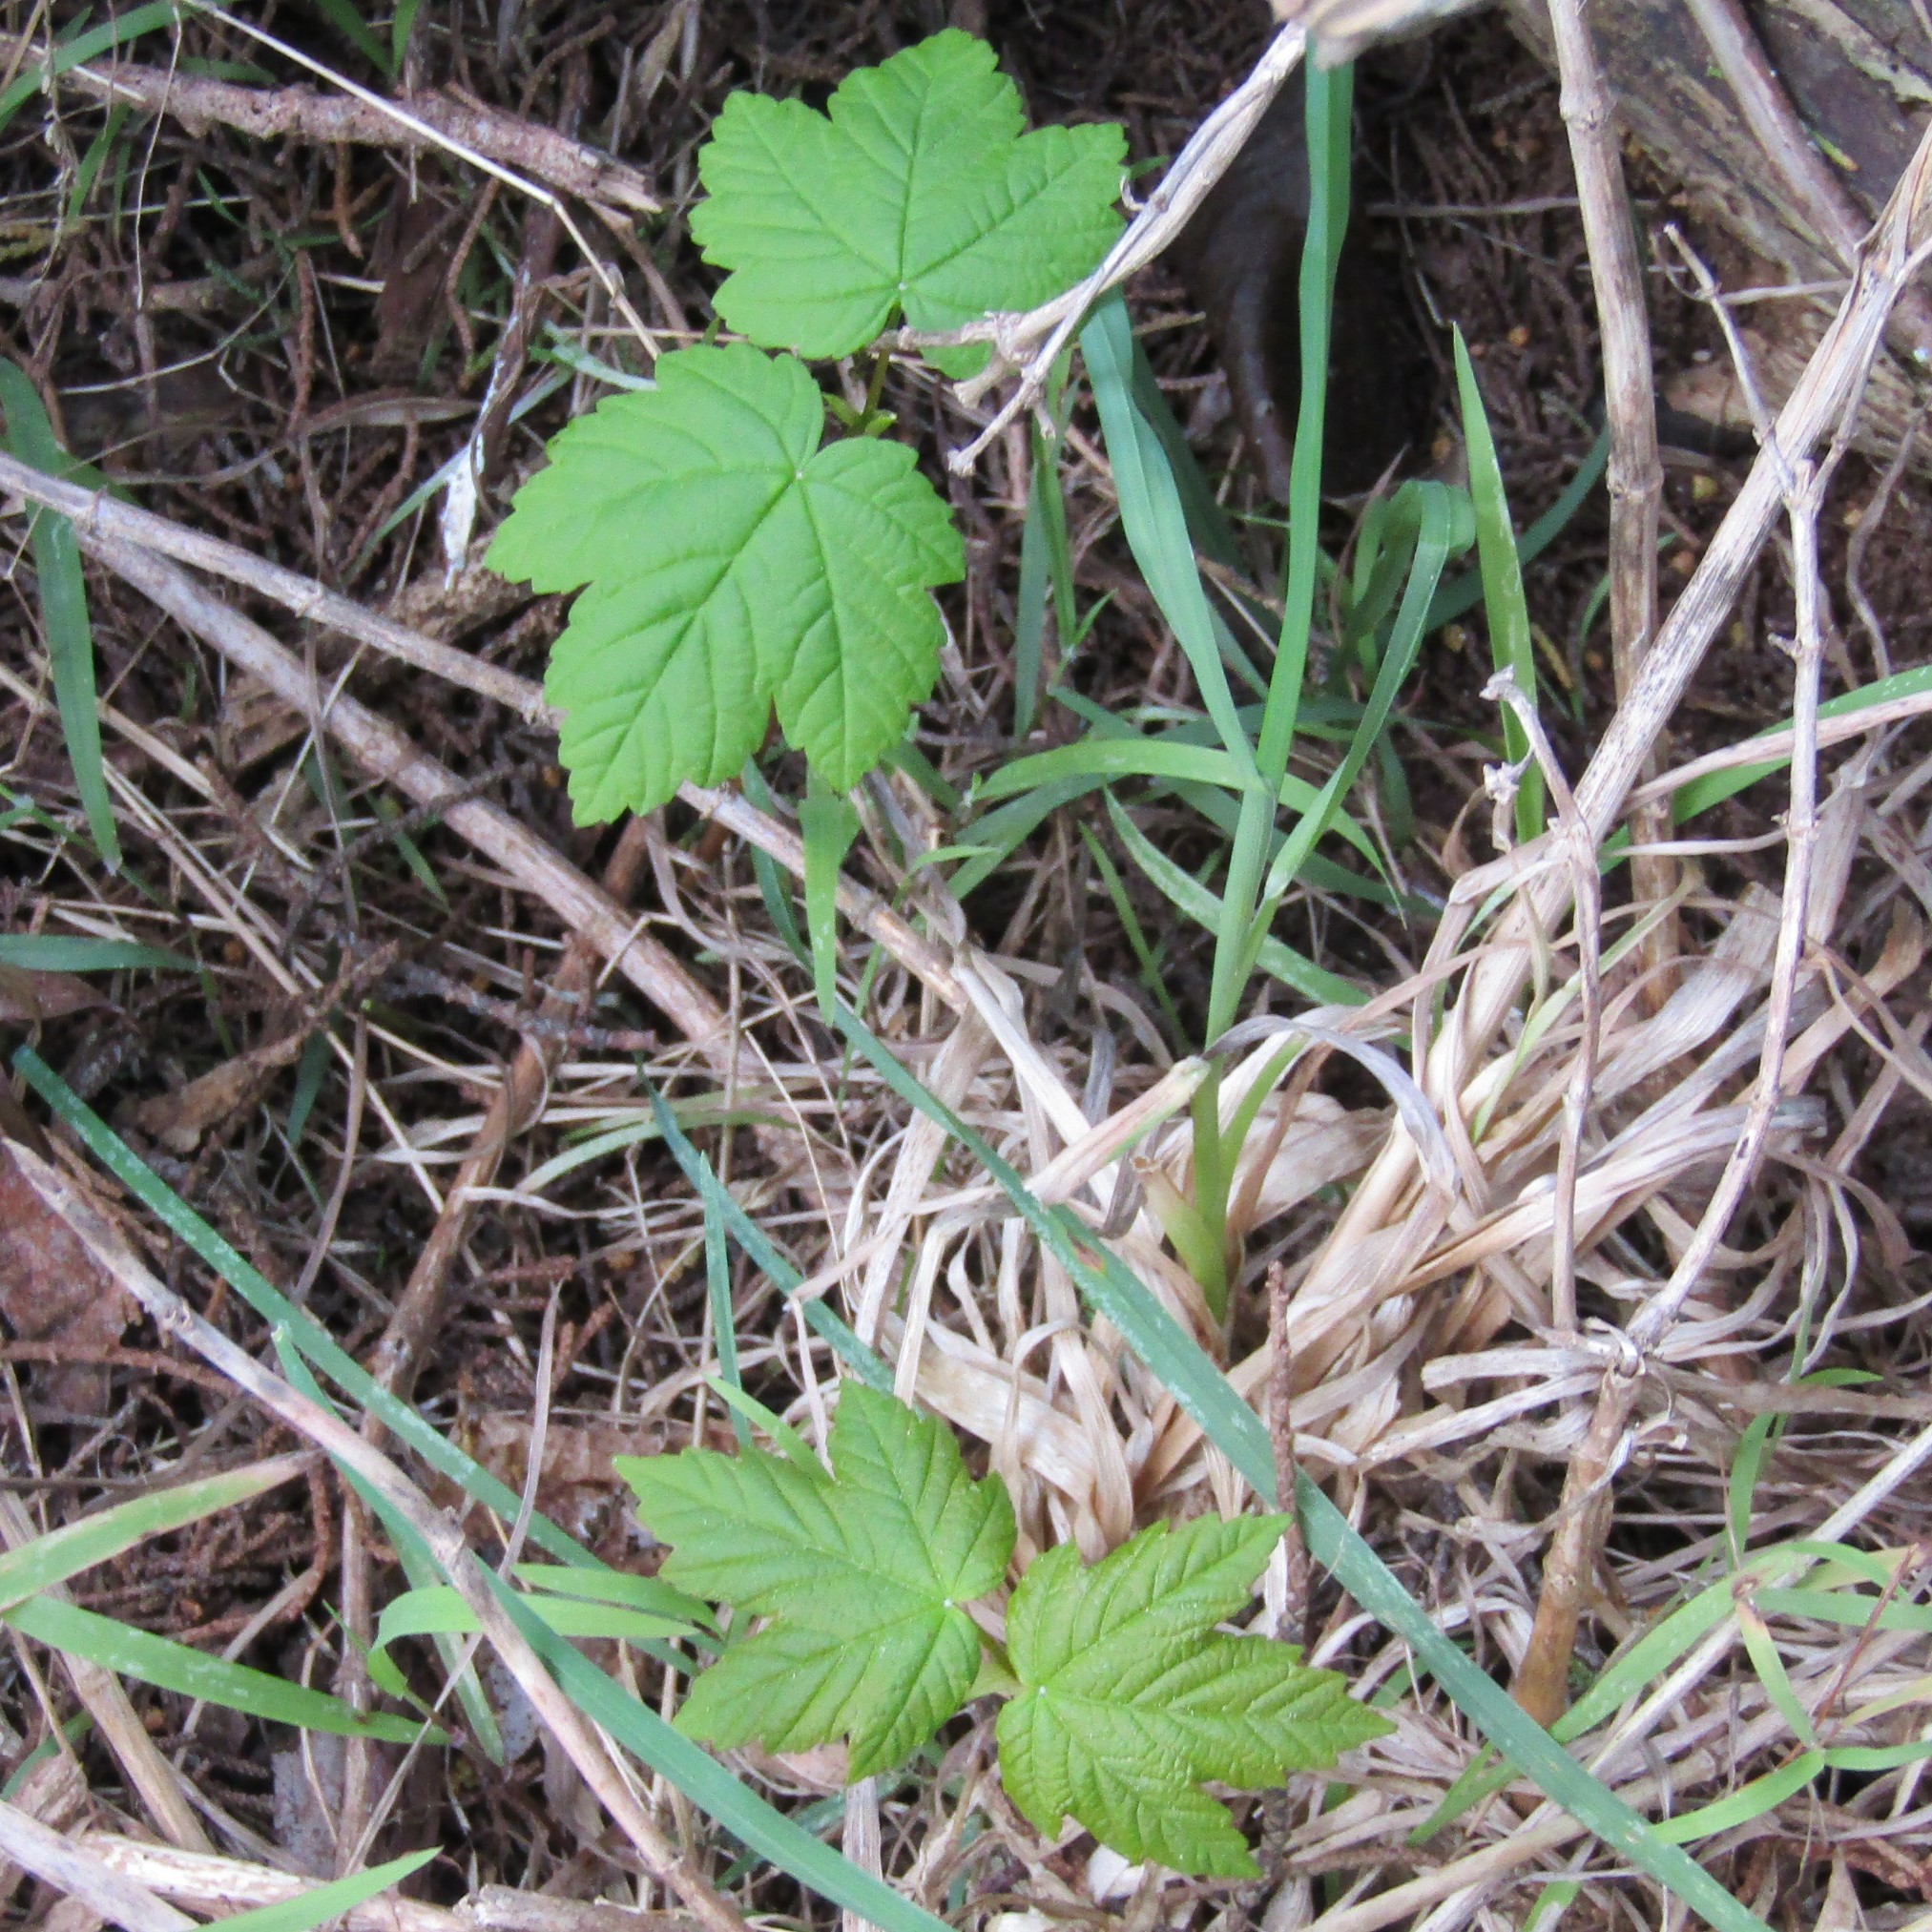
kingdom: Plantae
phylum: Tracheophyta
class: Magnoliopsida
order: Sapindales
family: Sapindaceae
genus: Acer
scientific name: Acer pseudoplatanus
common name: Sycamore
